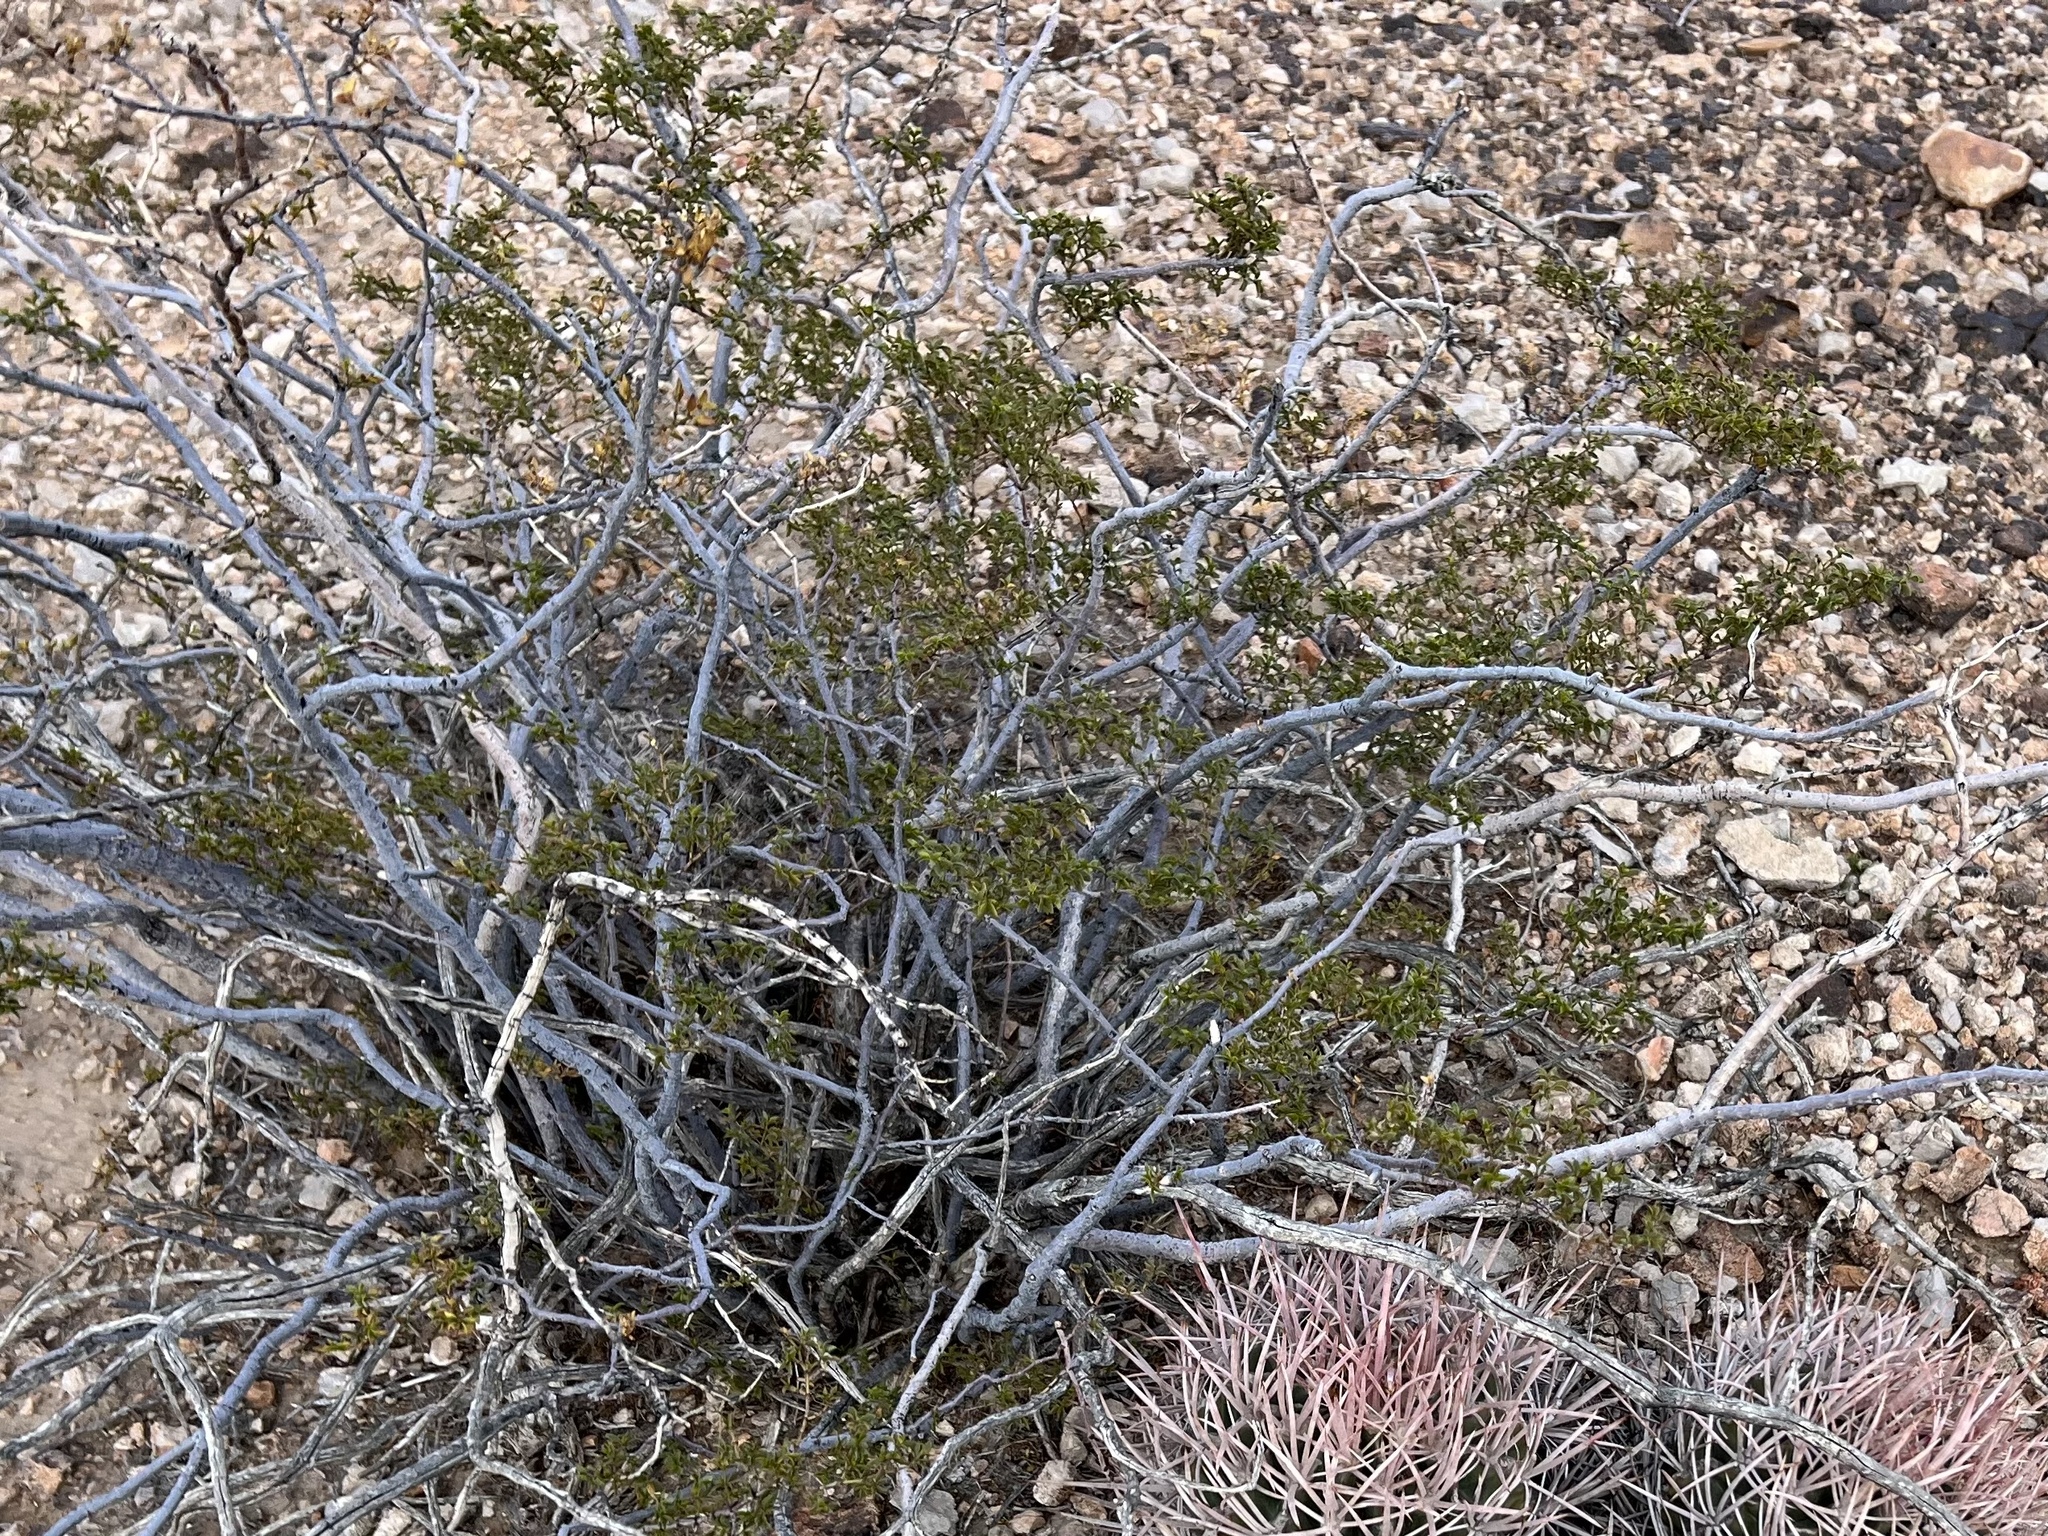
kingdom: Plantae
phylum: Tracheophyta
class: Magnoliopsida
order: Zygophyllales
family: Zygophyllaceae
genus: Larrea
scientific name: Larrea tridentata
